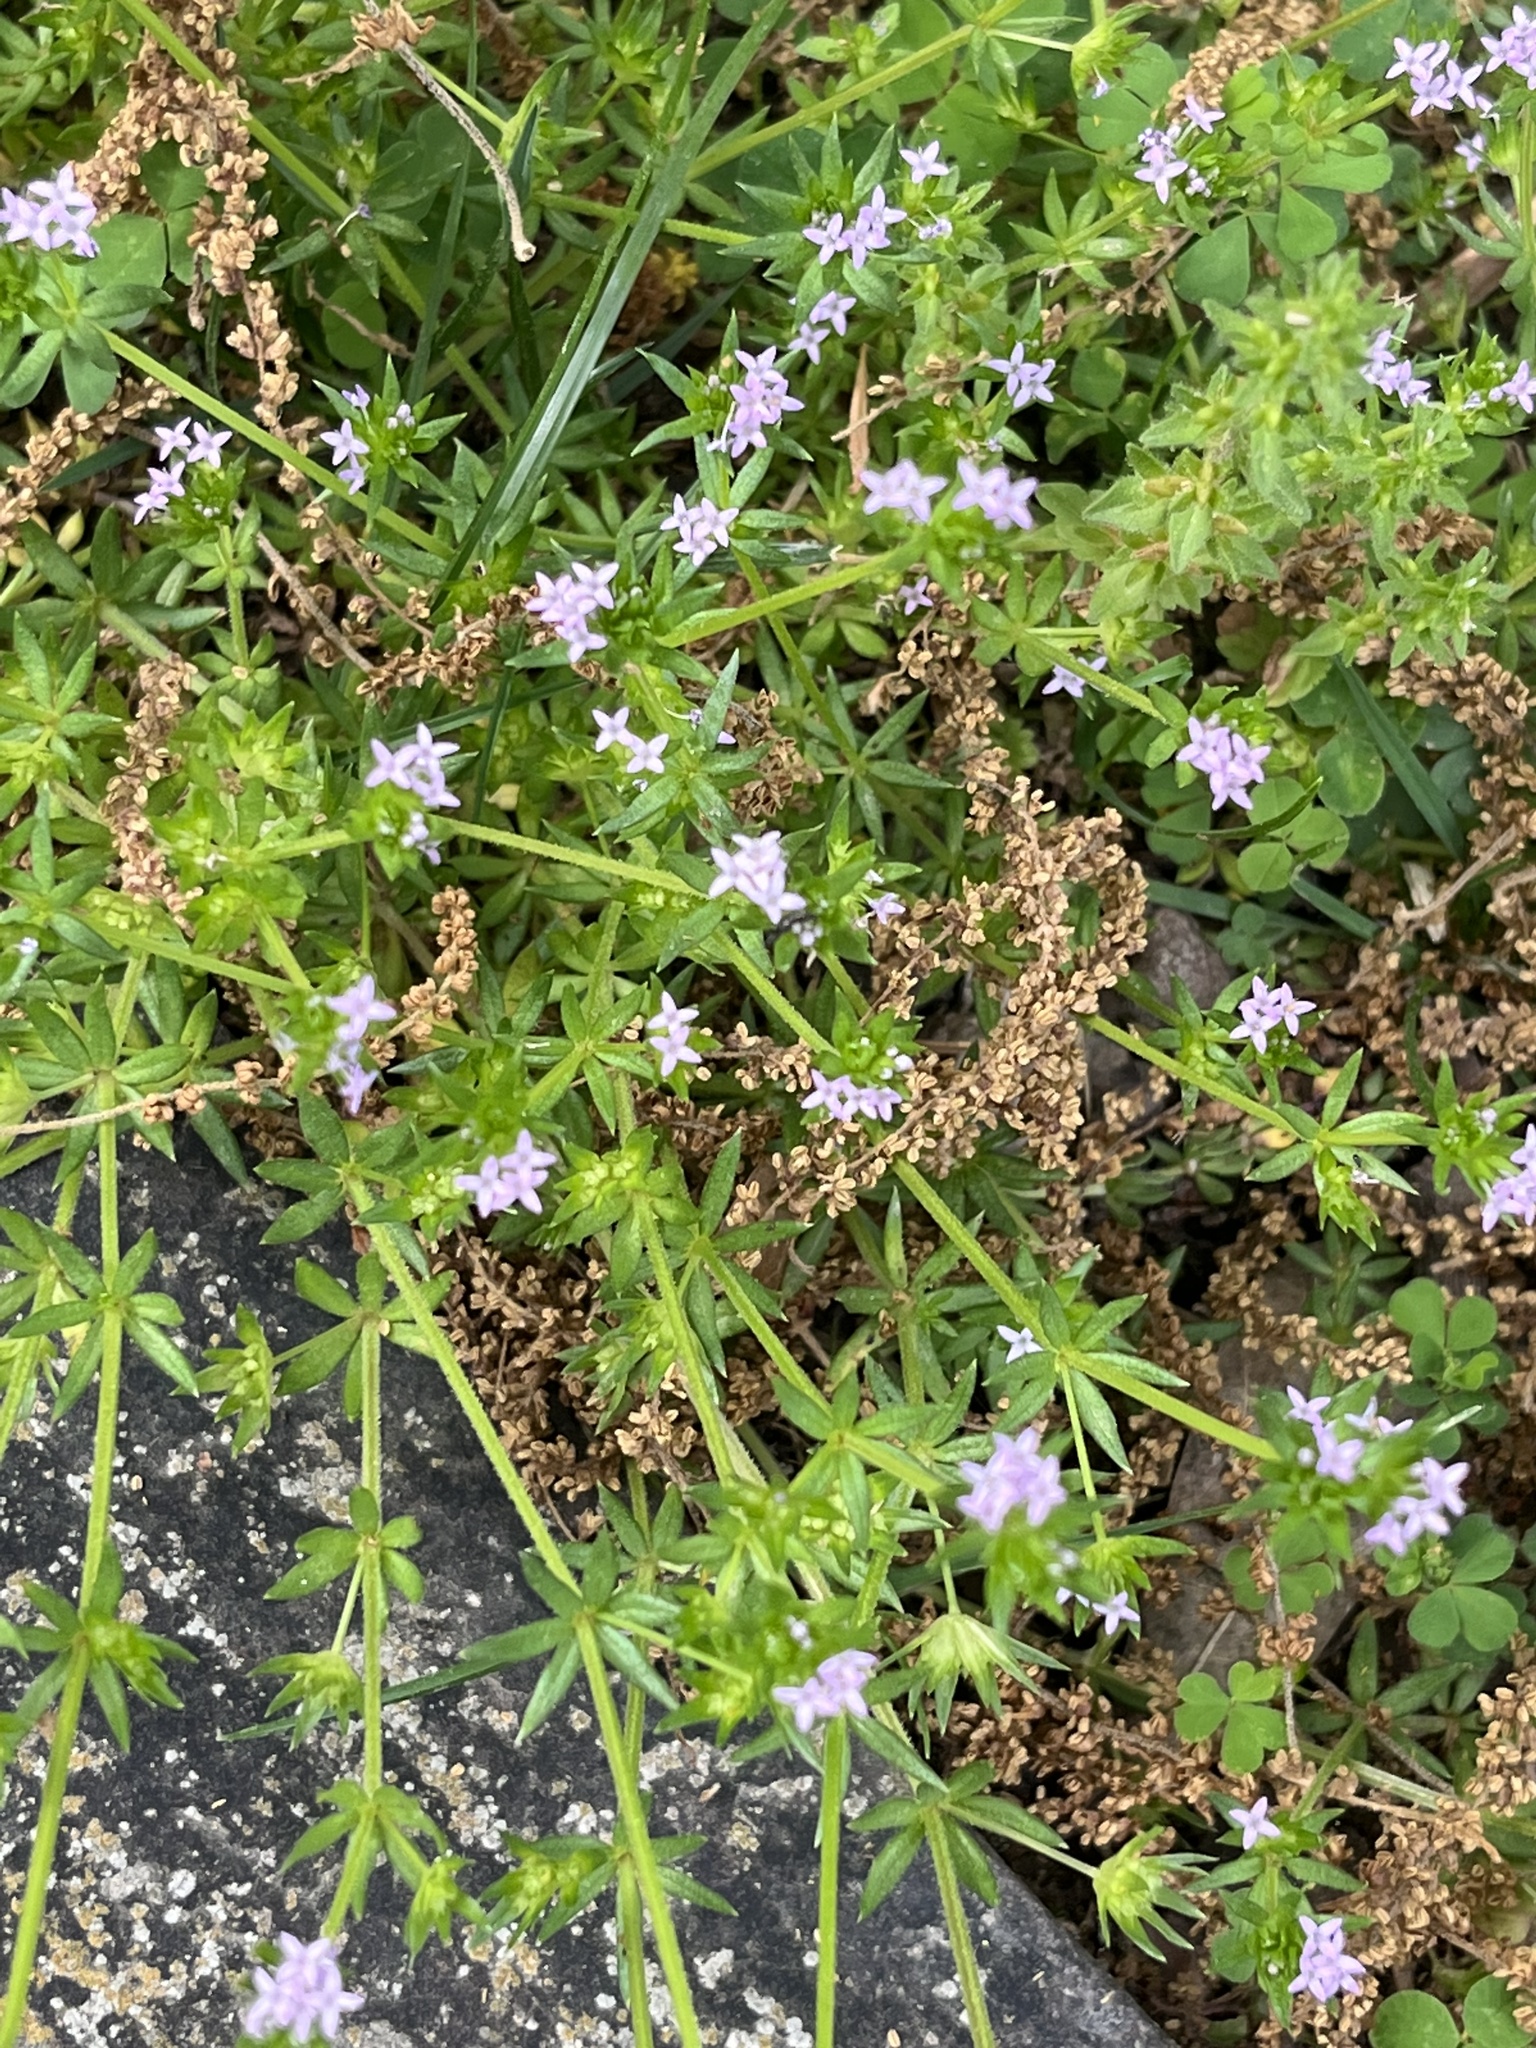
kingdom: Plantae
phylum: Tracheophyta
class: Magnoliopsida
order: Gentianales
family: Rubiaceae
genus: Sherardia
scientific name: Sherardia arvensis
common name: Field madder
